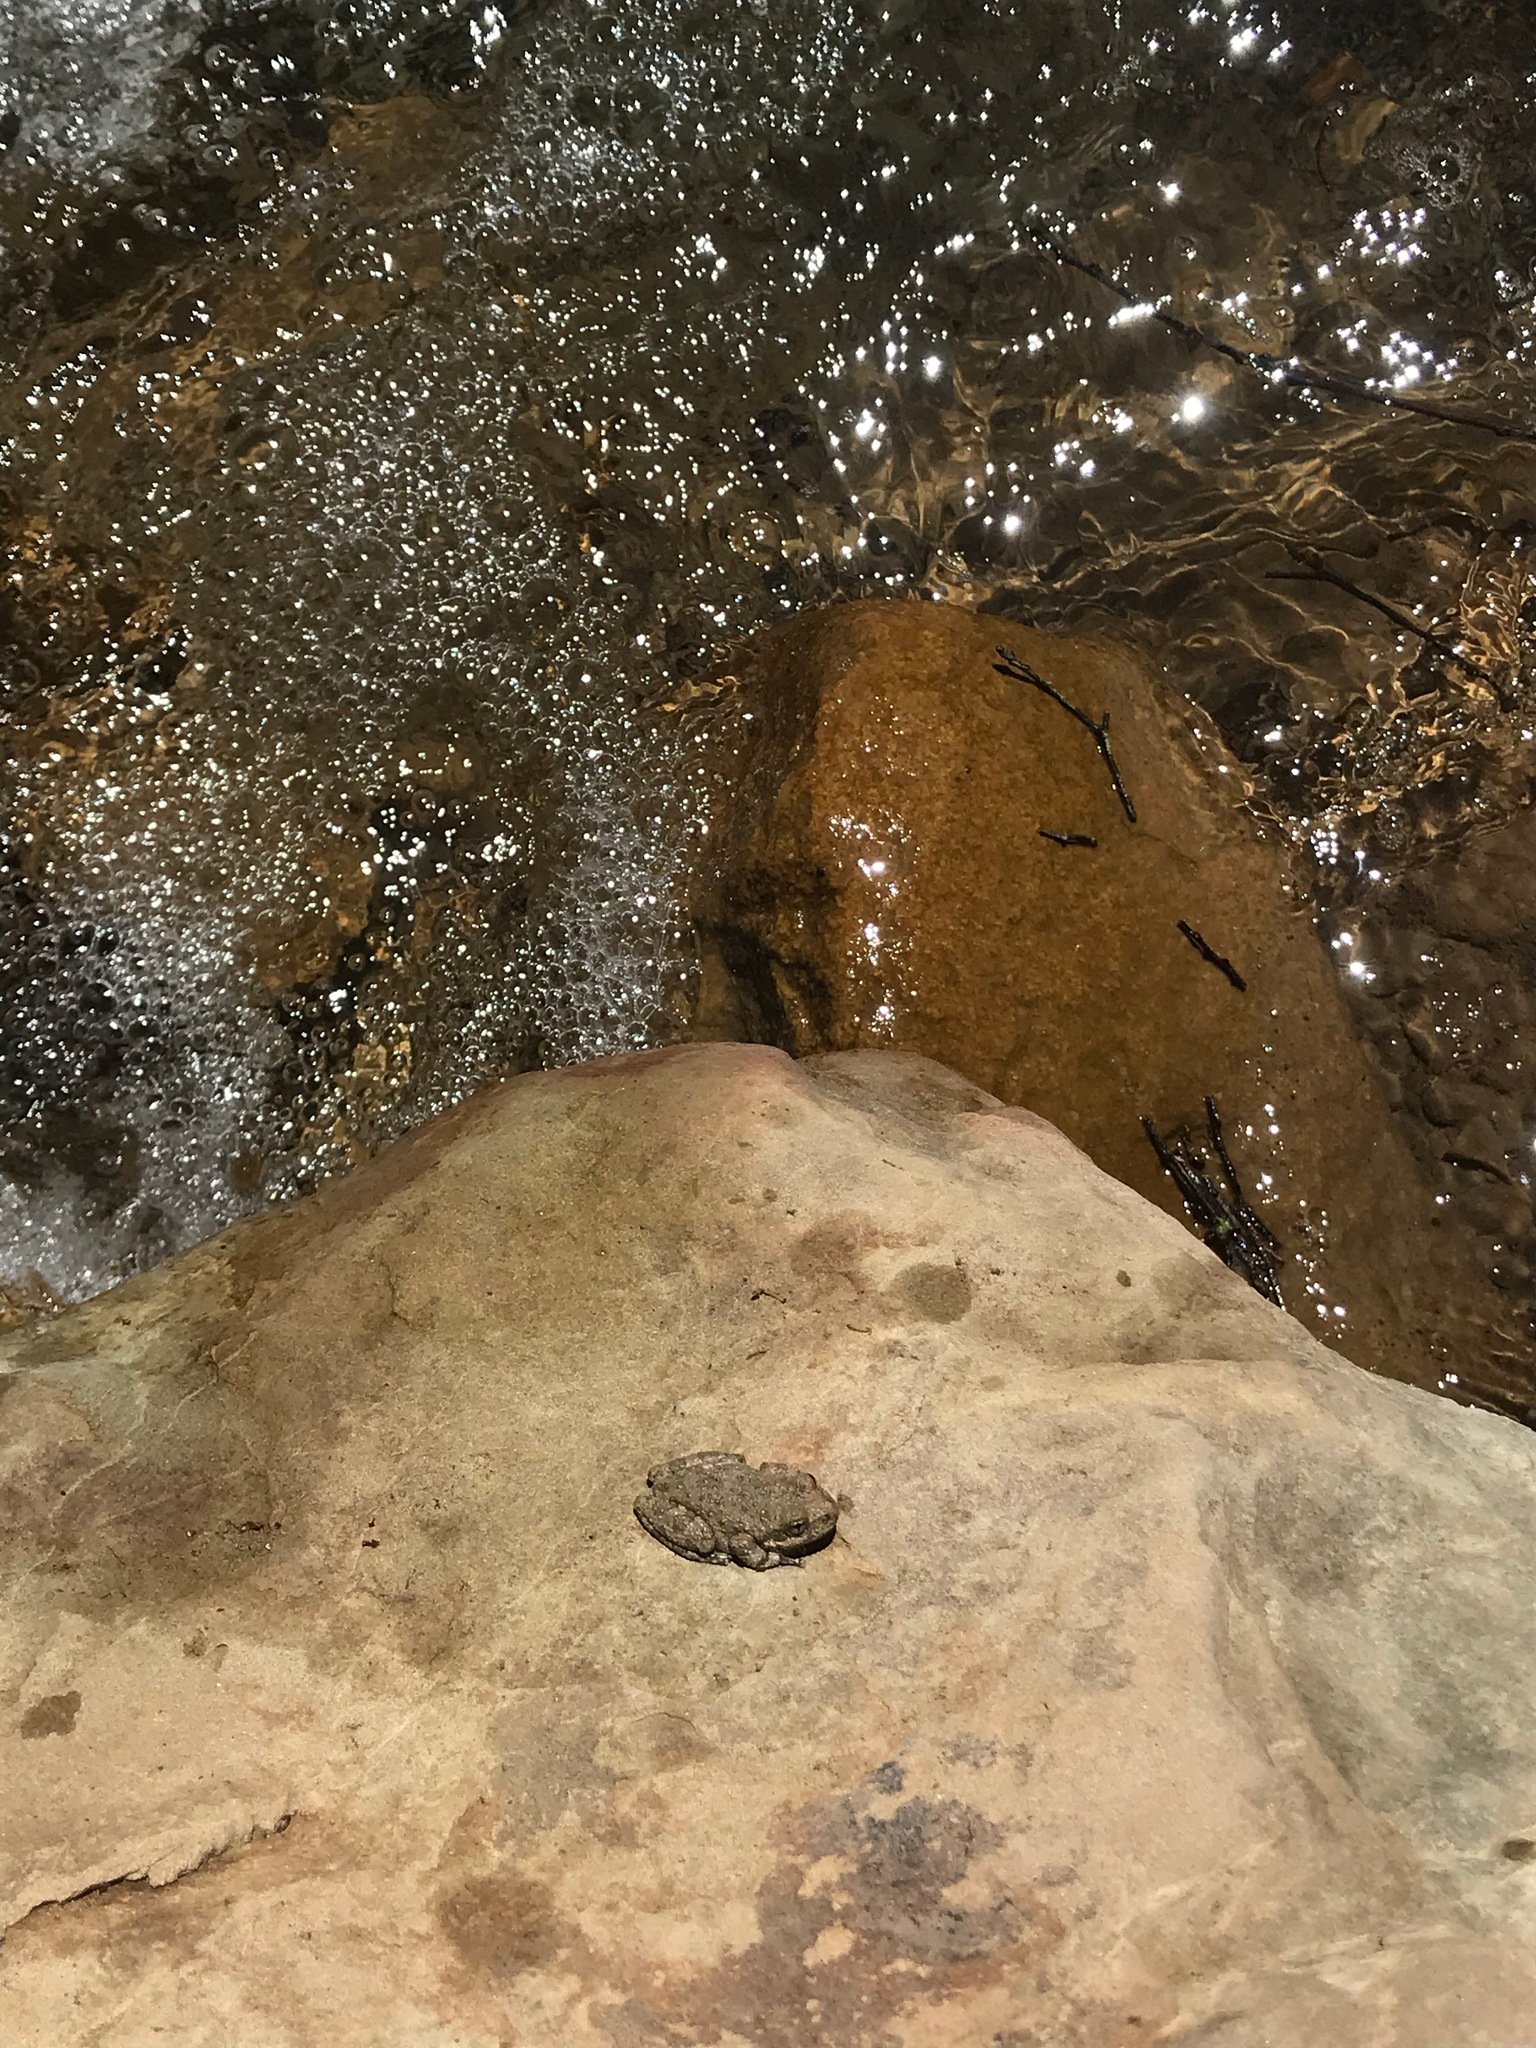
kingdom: Animalia
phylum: Chordata
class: Amphibia
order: Anura
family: Hylidae
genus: Pseudacris
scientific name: Pseudacris cadaverina
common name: California chorus frog
